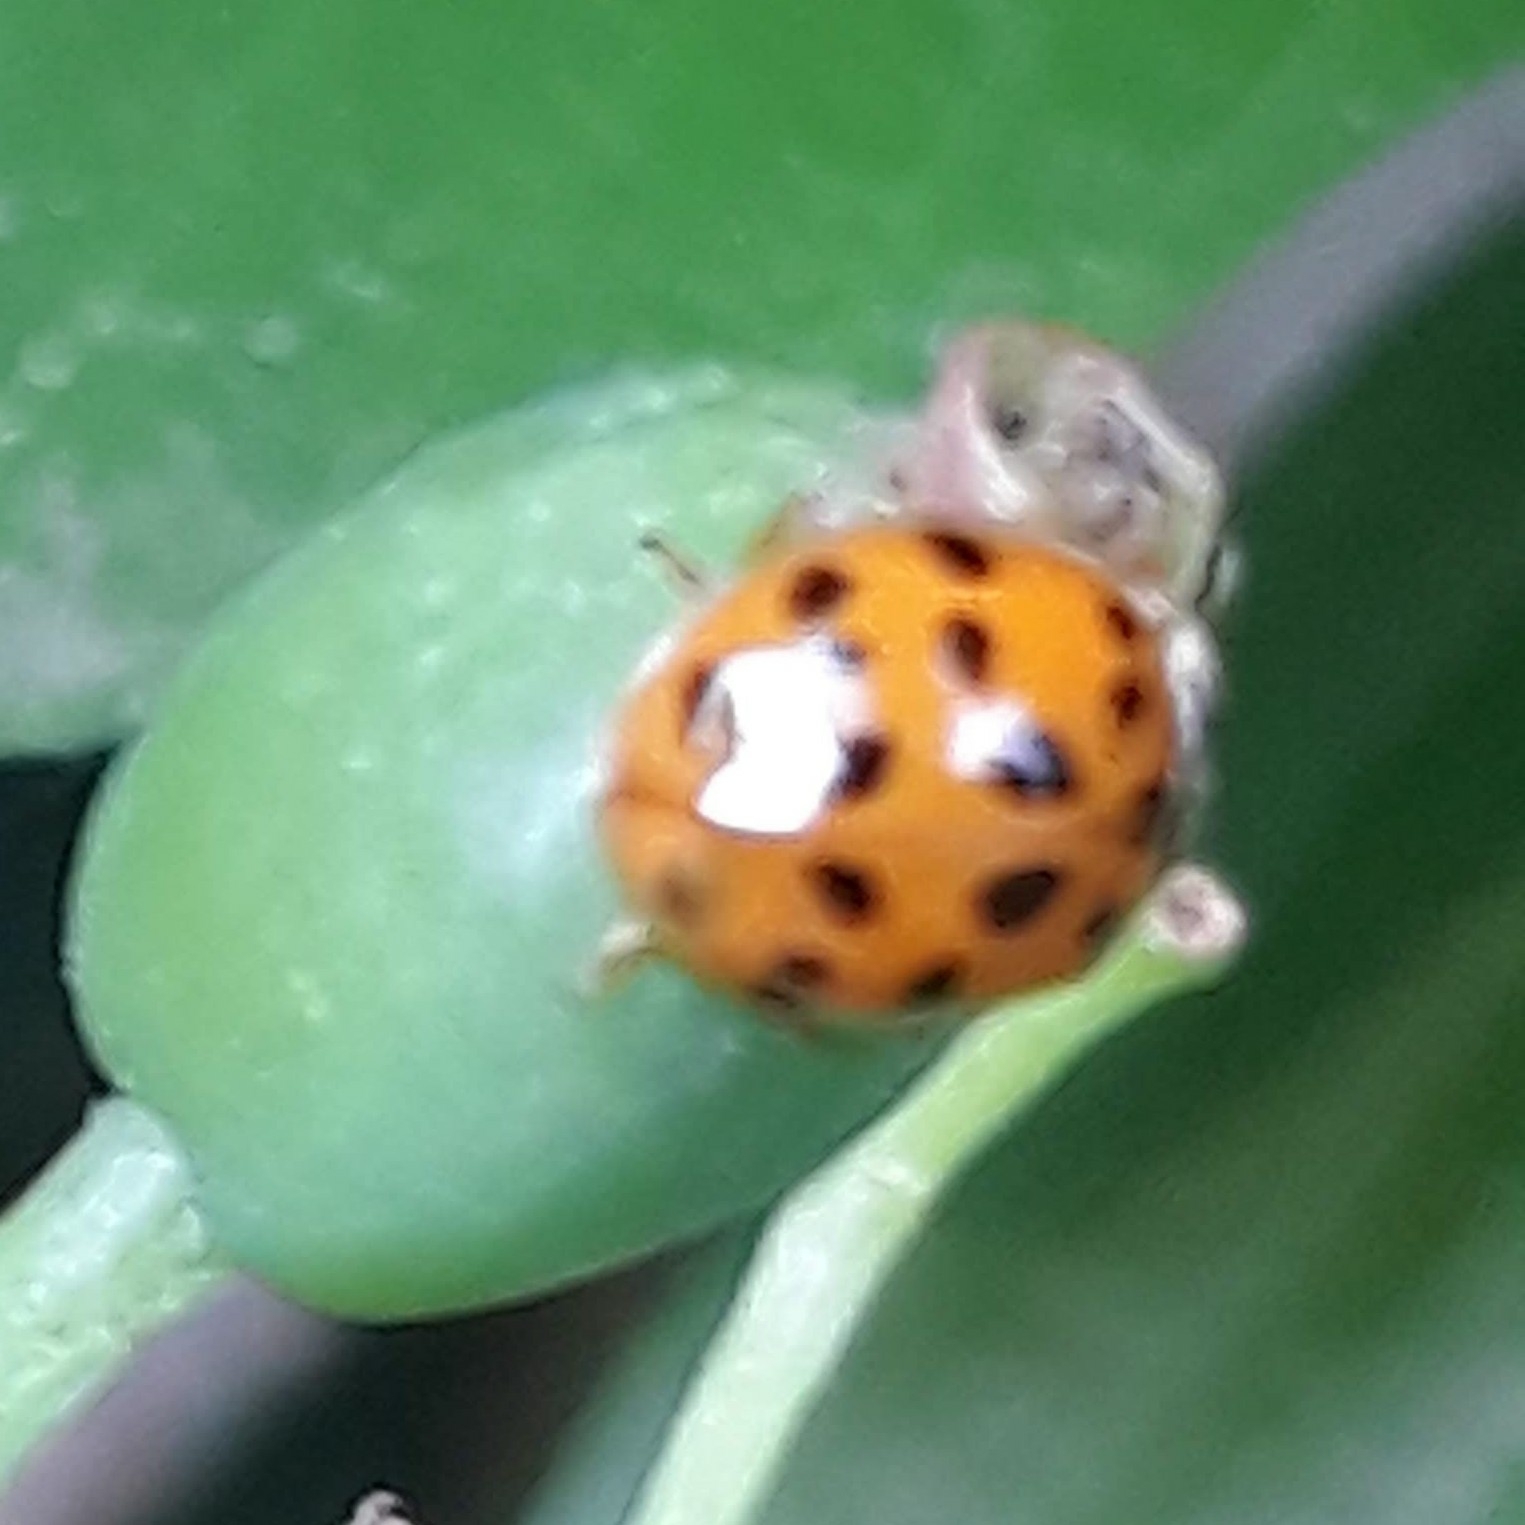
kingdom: Animalia
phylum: Arthropoda
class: Insecta
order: Coleoptera
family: Coccinellidae
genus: Harmonia
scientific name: Harmonia axyridis
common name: Harlequin ladybird
